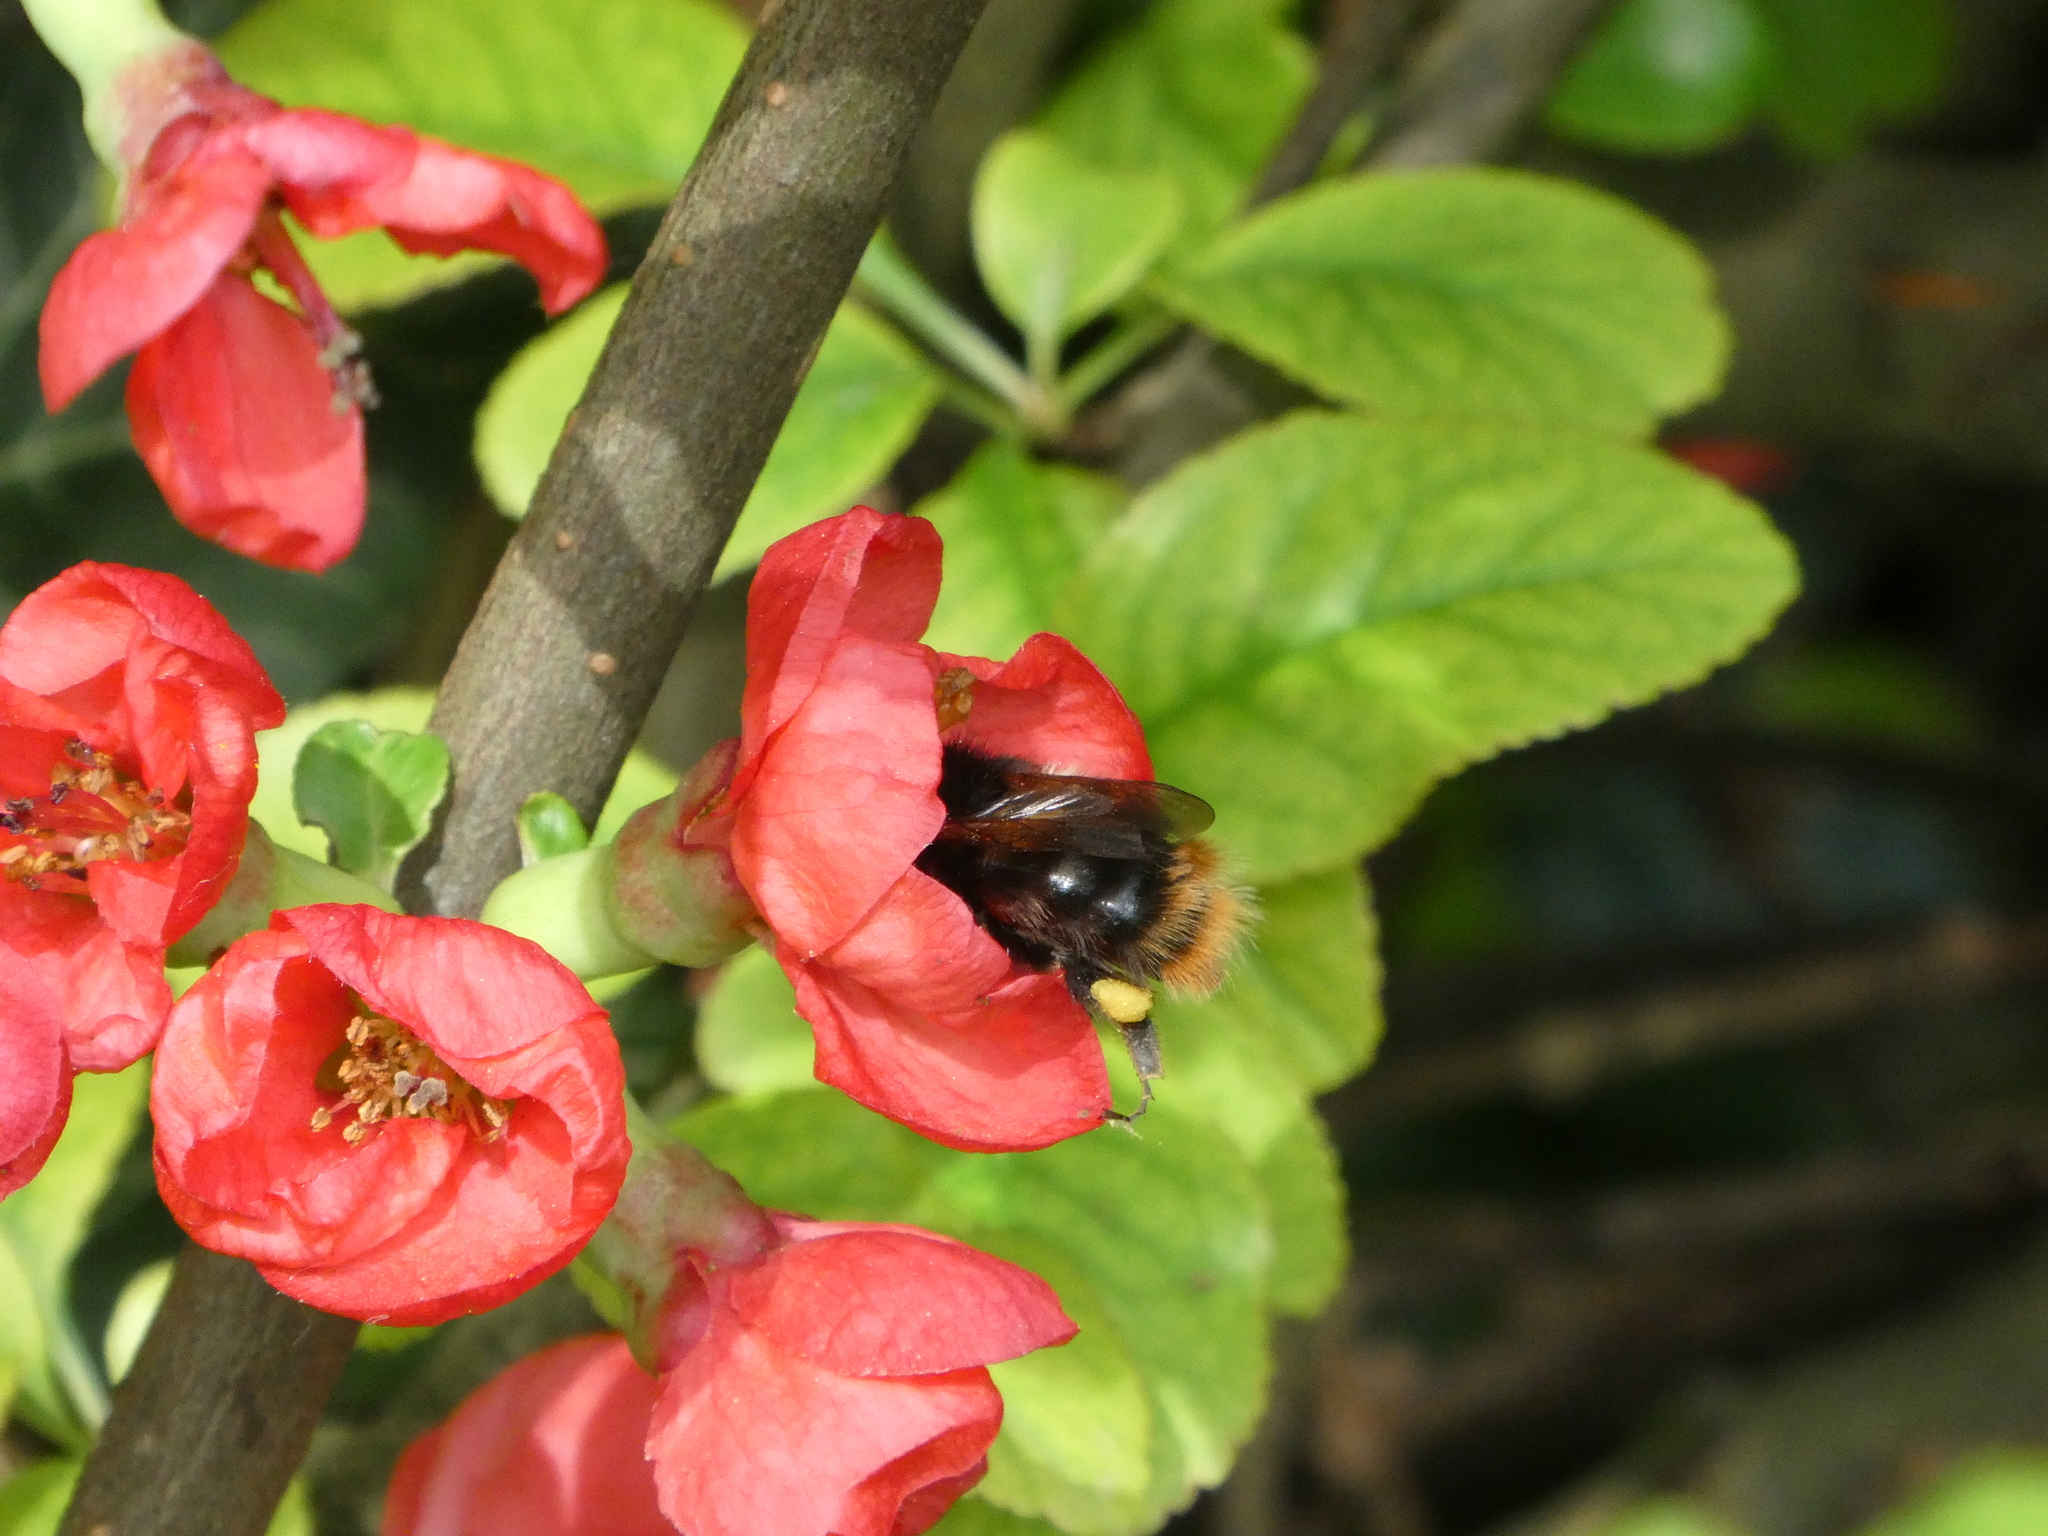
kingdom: Animalia
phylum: Arthropoda
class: Insecta
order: Hymenoptera
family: Apidae
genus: Bombus
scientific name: Bombus pratorum
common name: Early humble-bee
